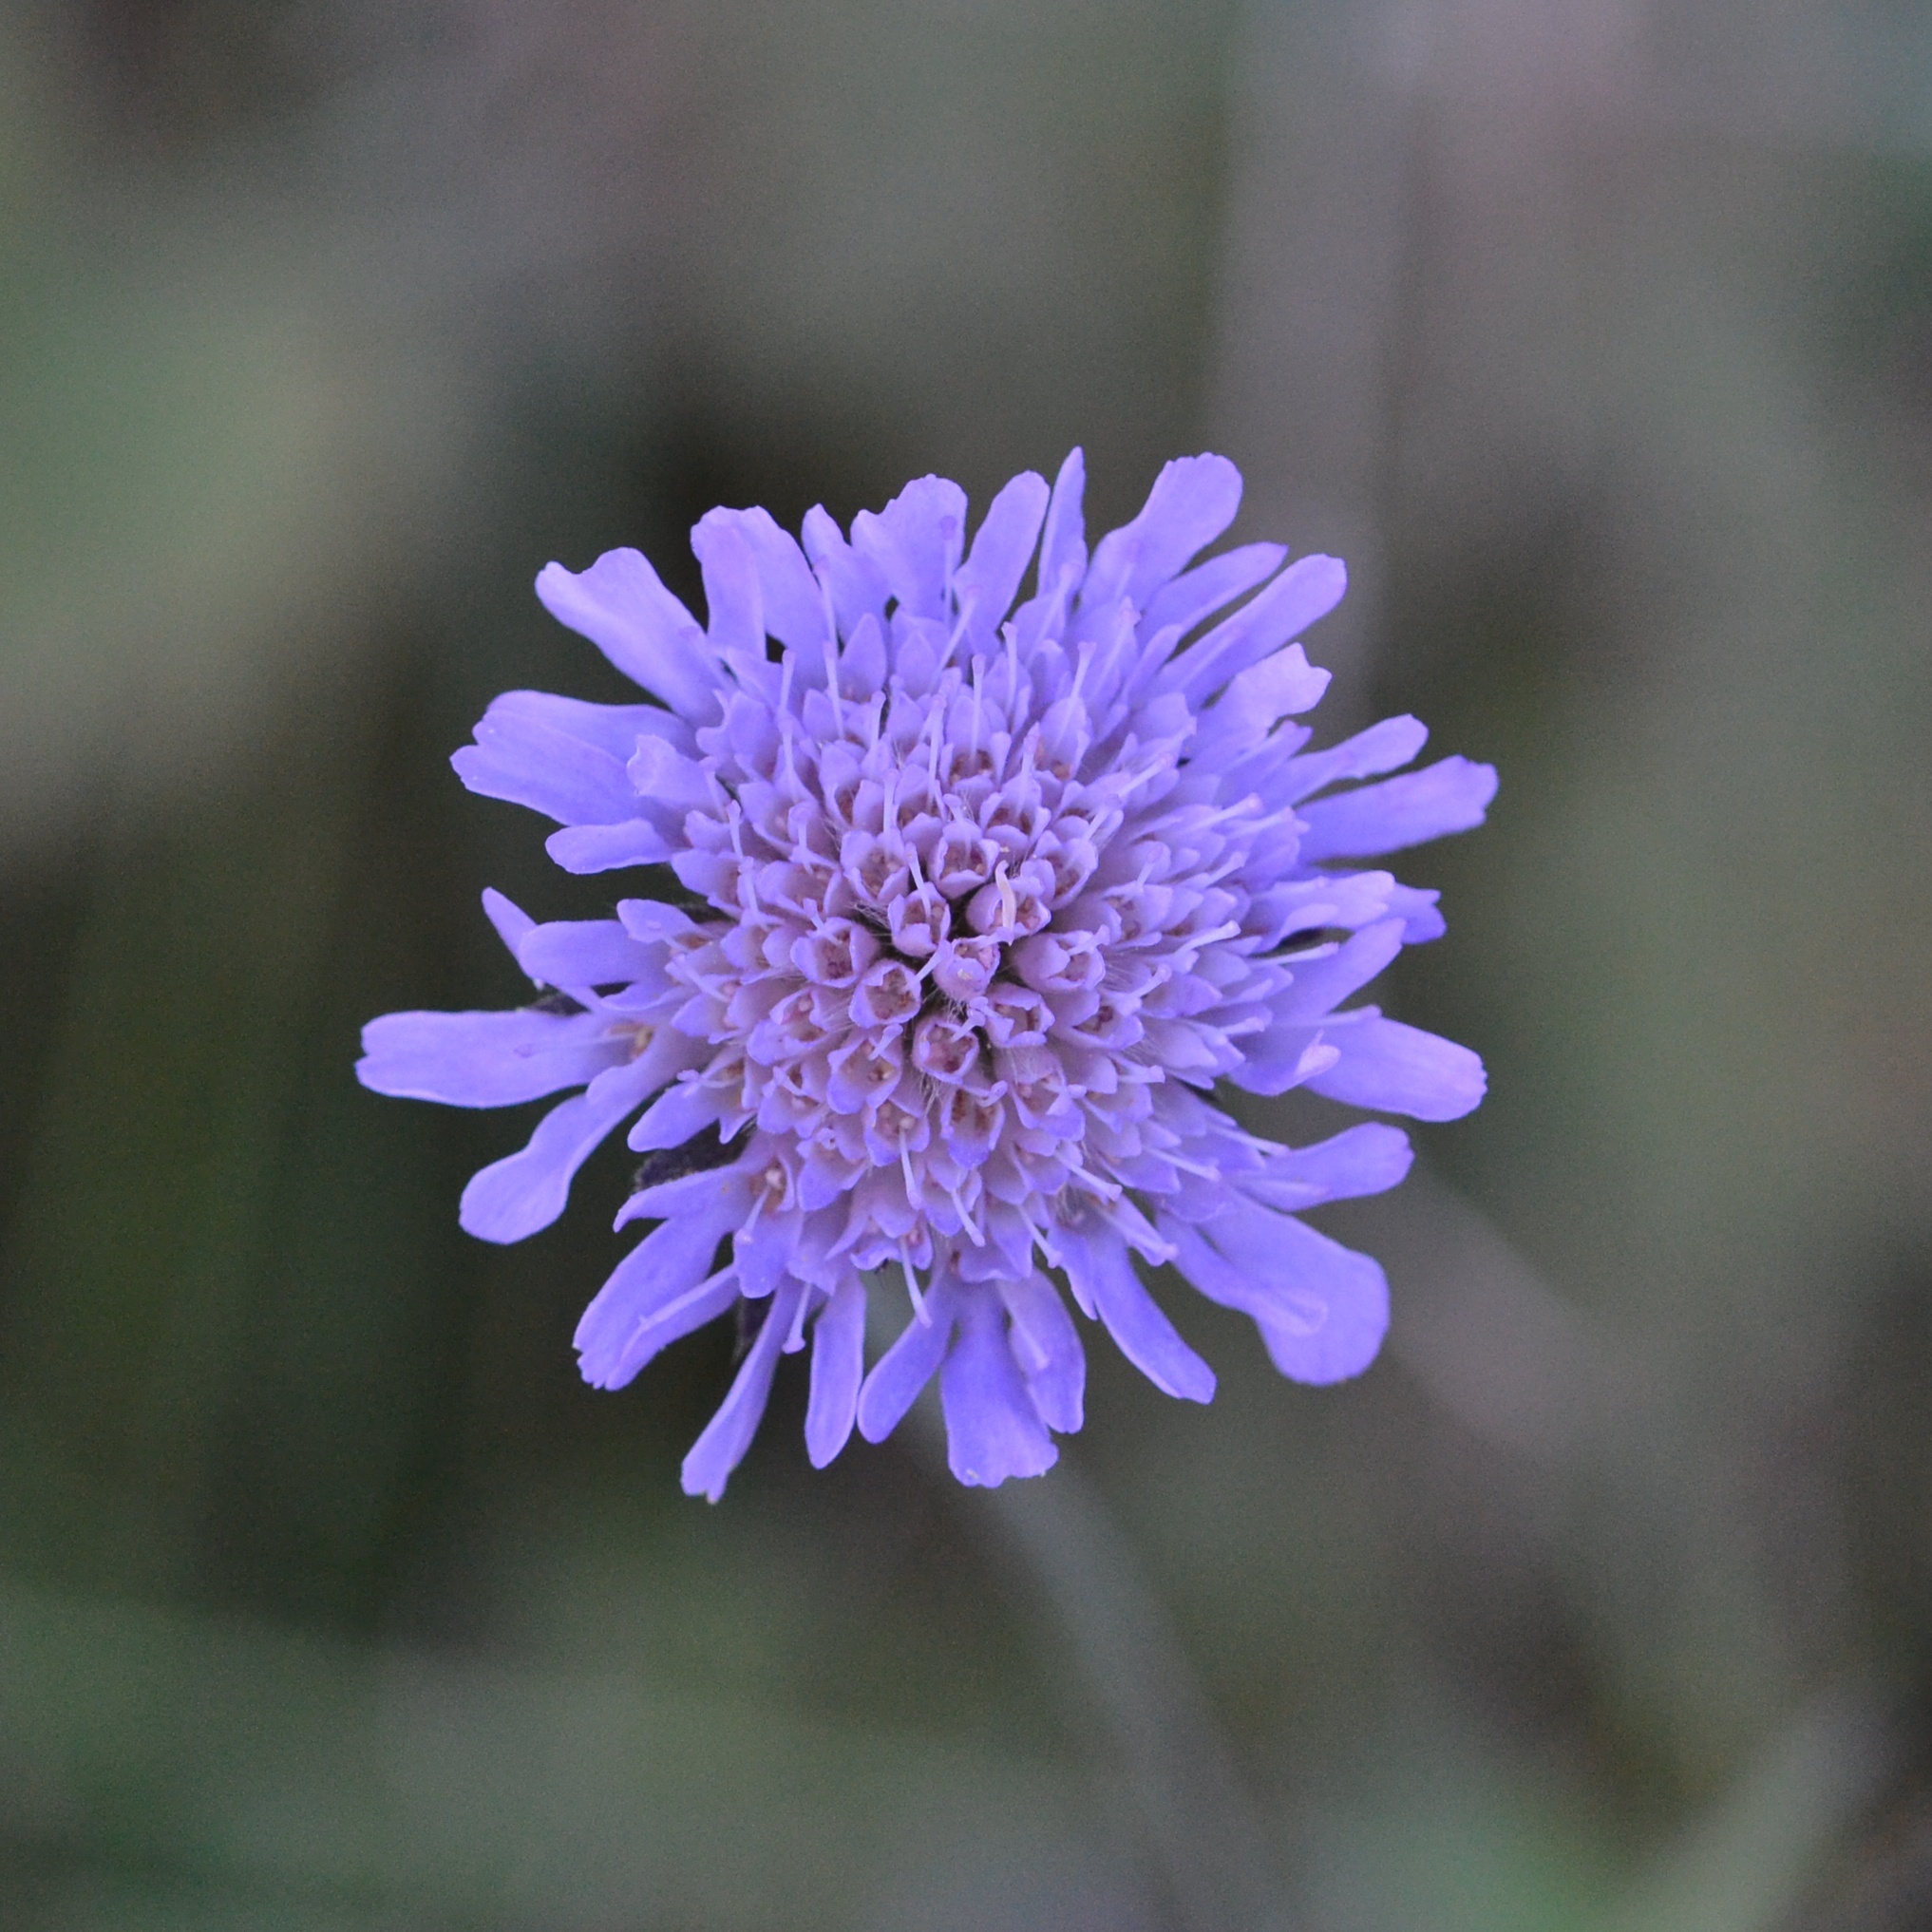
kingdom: Plantae
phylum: Tracheophyta
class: Magnoliopsida
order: Dipsacales
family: Caprifoliaceae
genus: Knautia
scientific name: Knautia arvensis
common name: Field scabiosa
